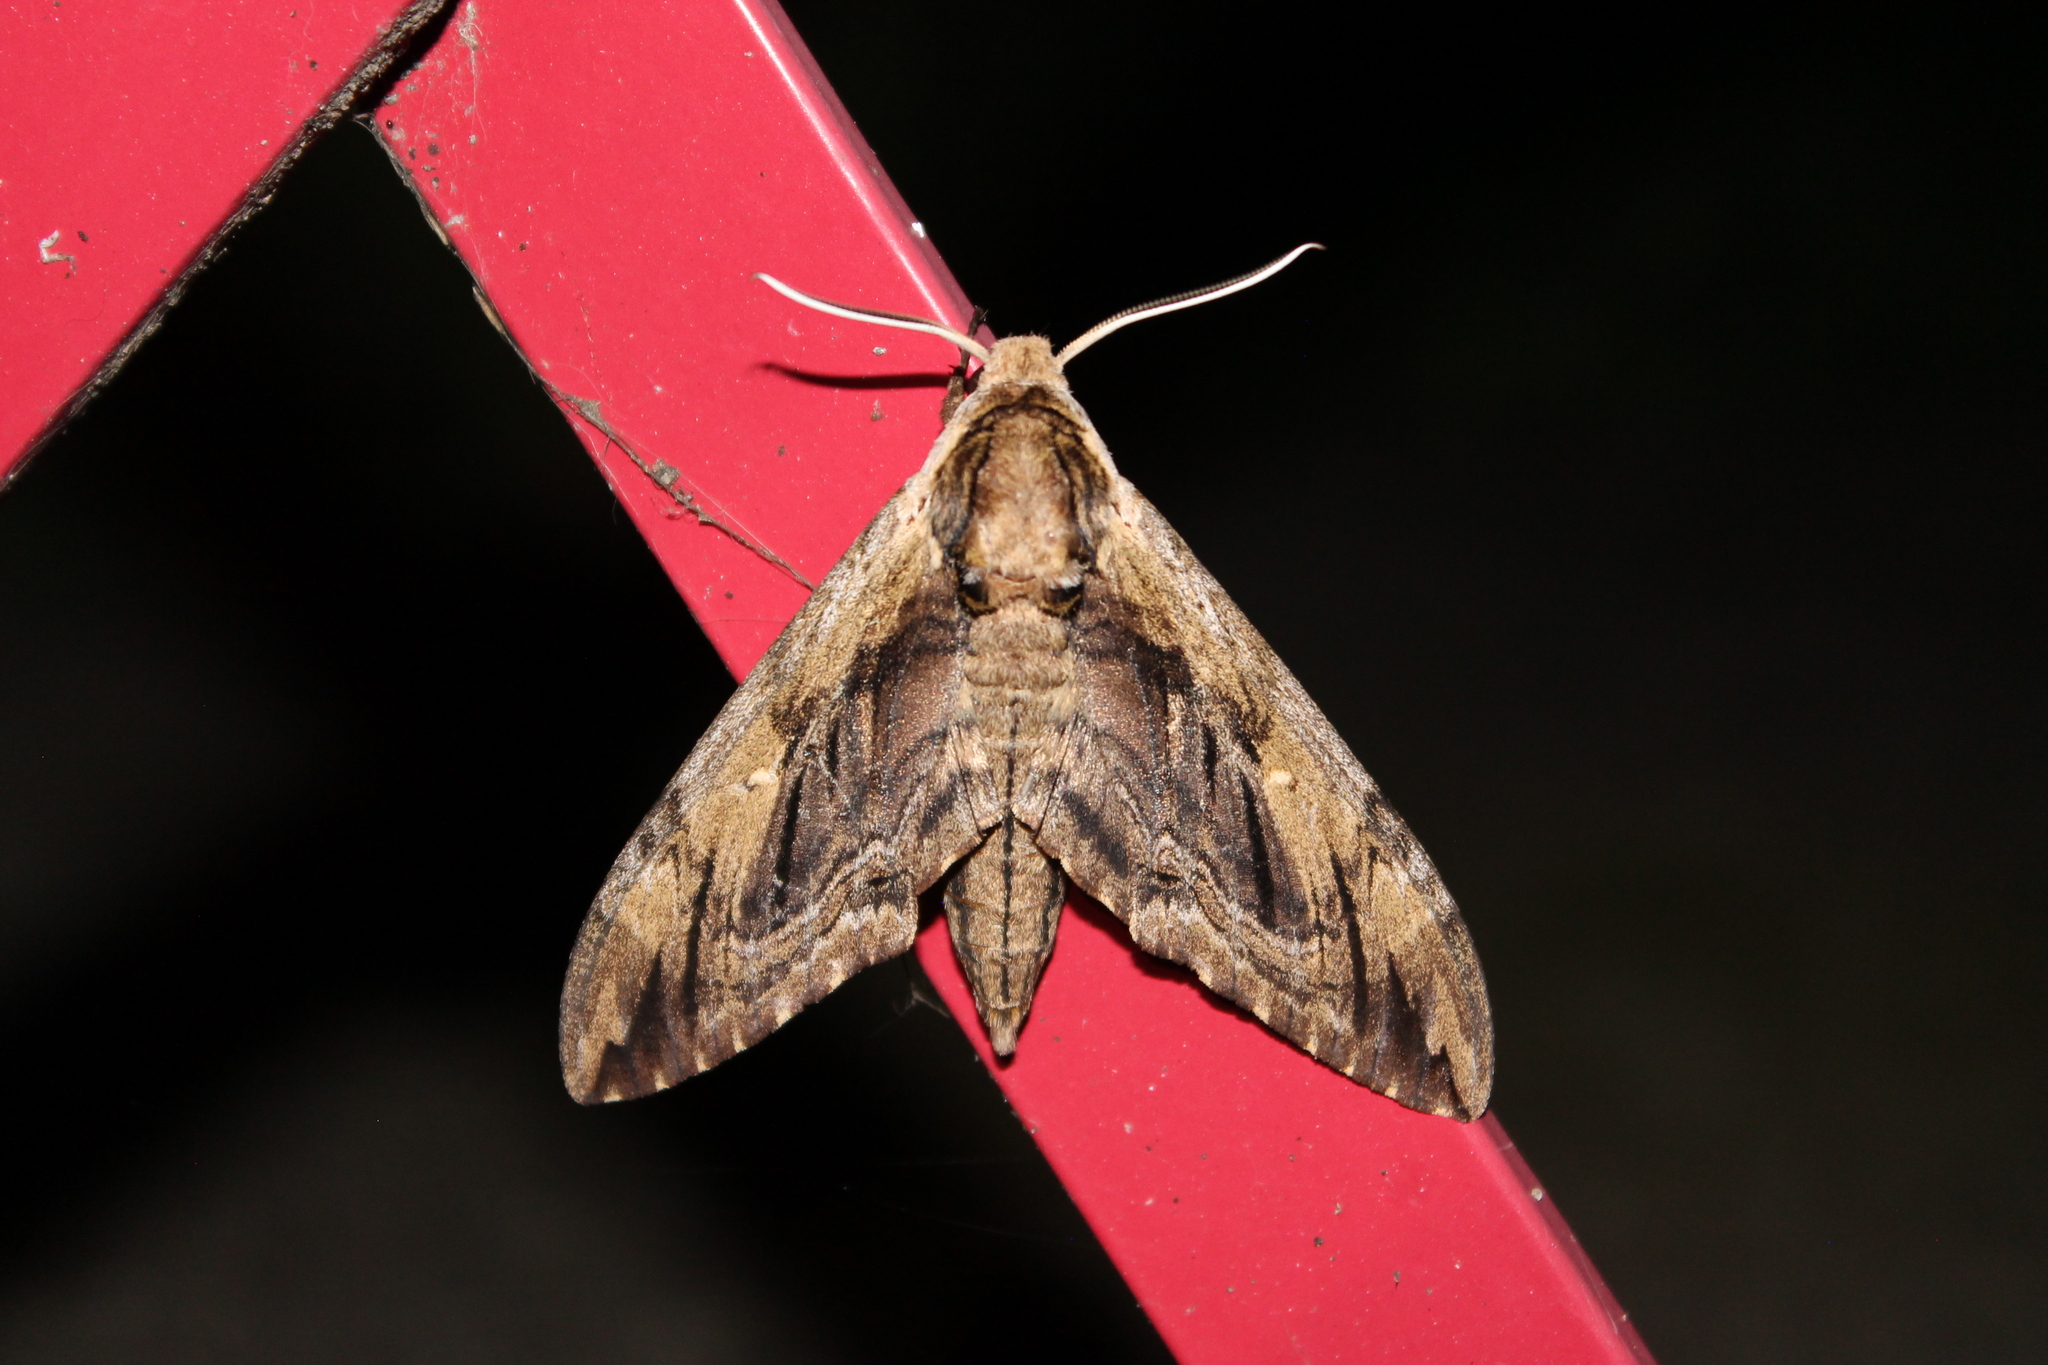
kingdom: Animalia
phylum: Arthropoda
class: Insecta
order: Lepidoptera
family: Sphingidae
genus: Ceratomia
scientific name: Ceratomia amyntor
